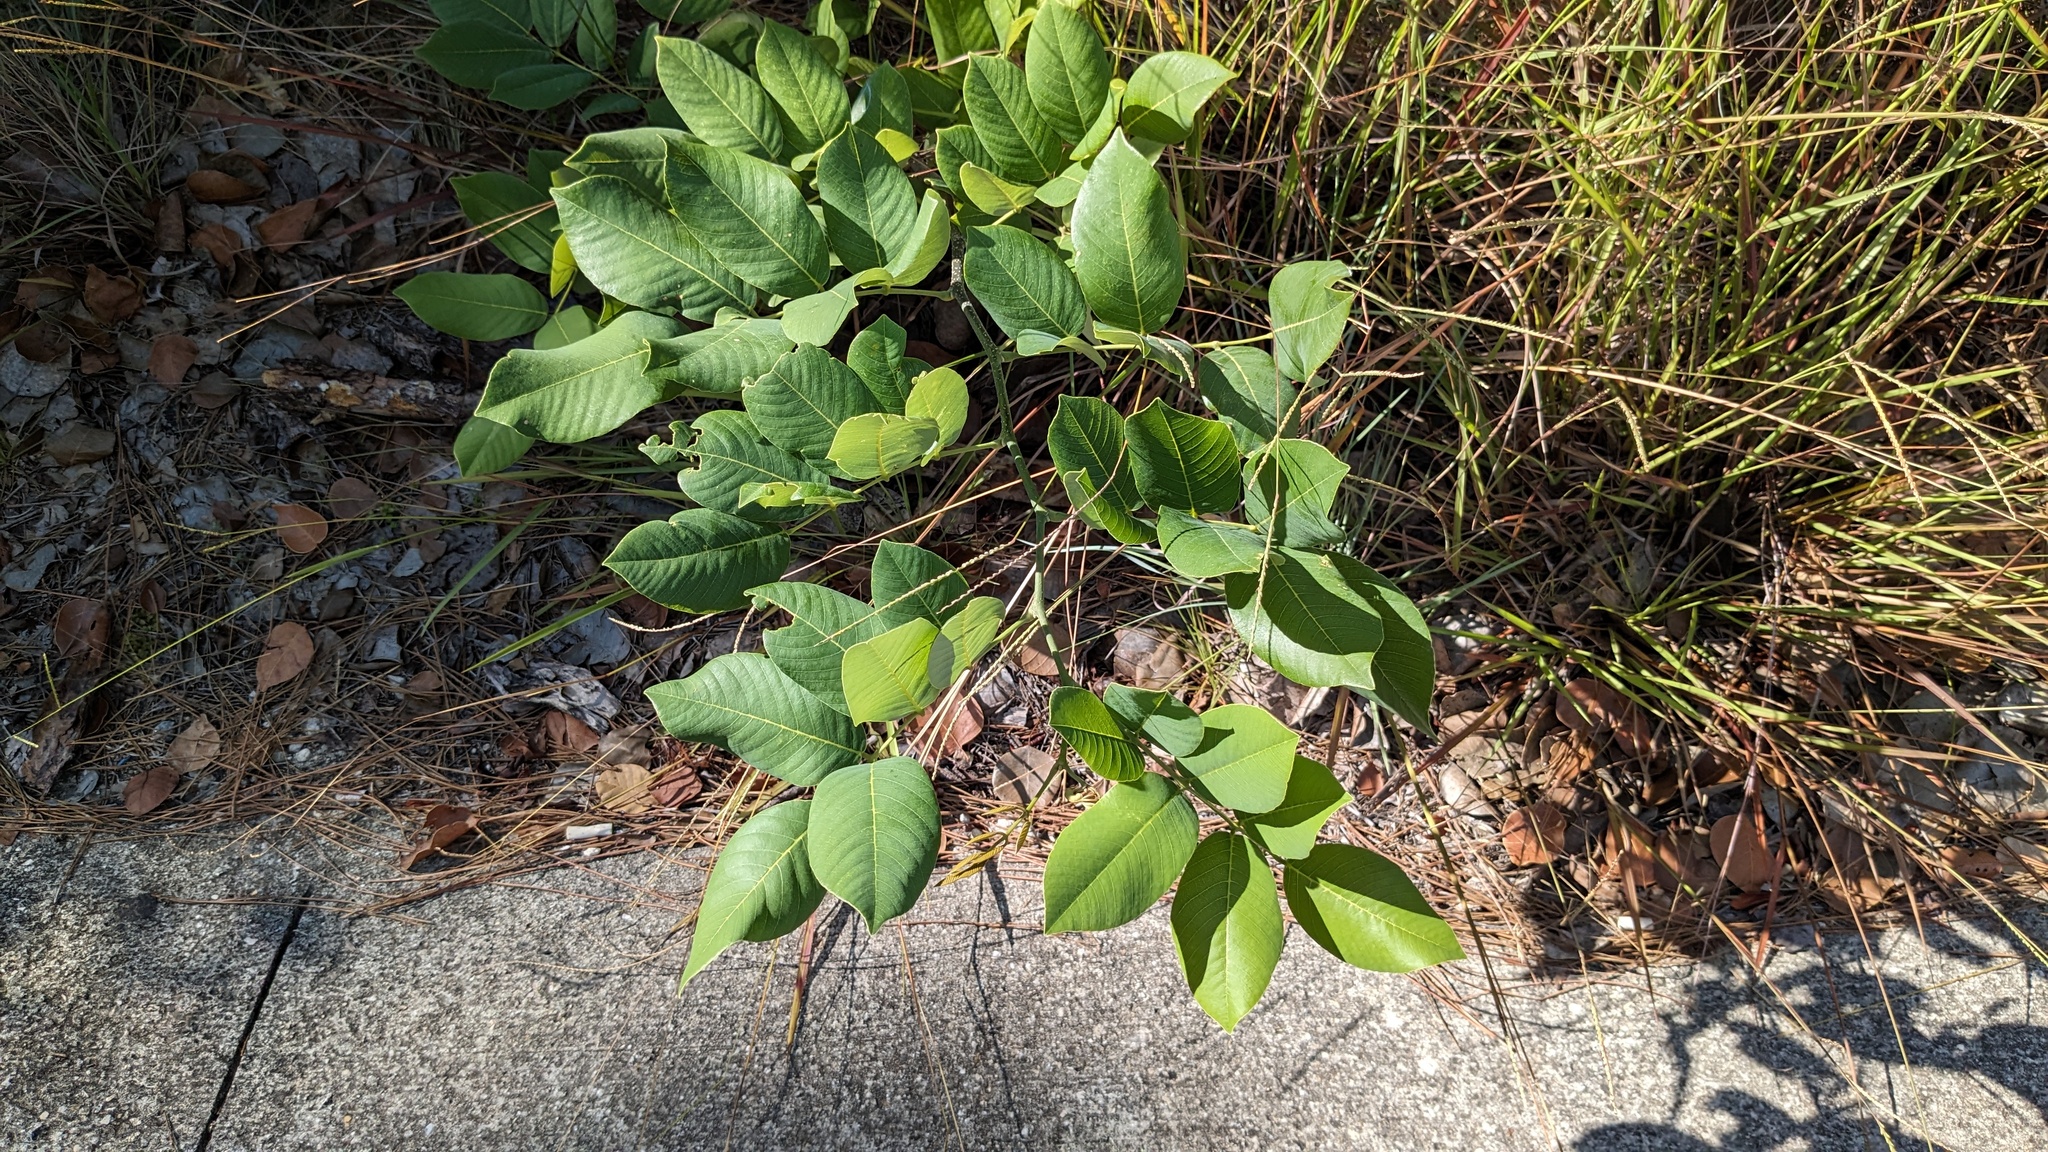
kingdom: Plantae
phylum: Tracheophyta
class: Magnoliopsida
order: Fabales
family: Fabaceae
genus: Piscidia
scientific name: Piscidia piscipula
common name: Florida fishpoison tree
